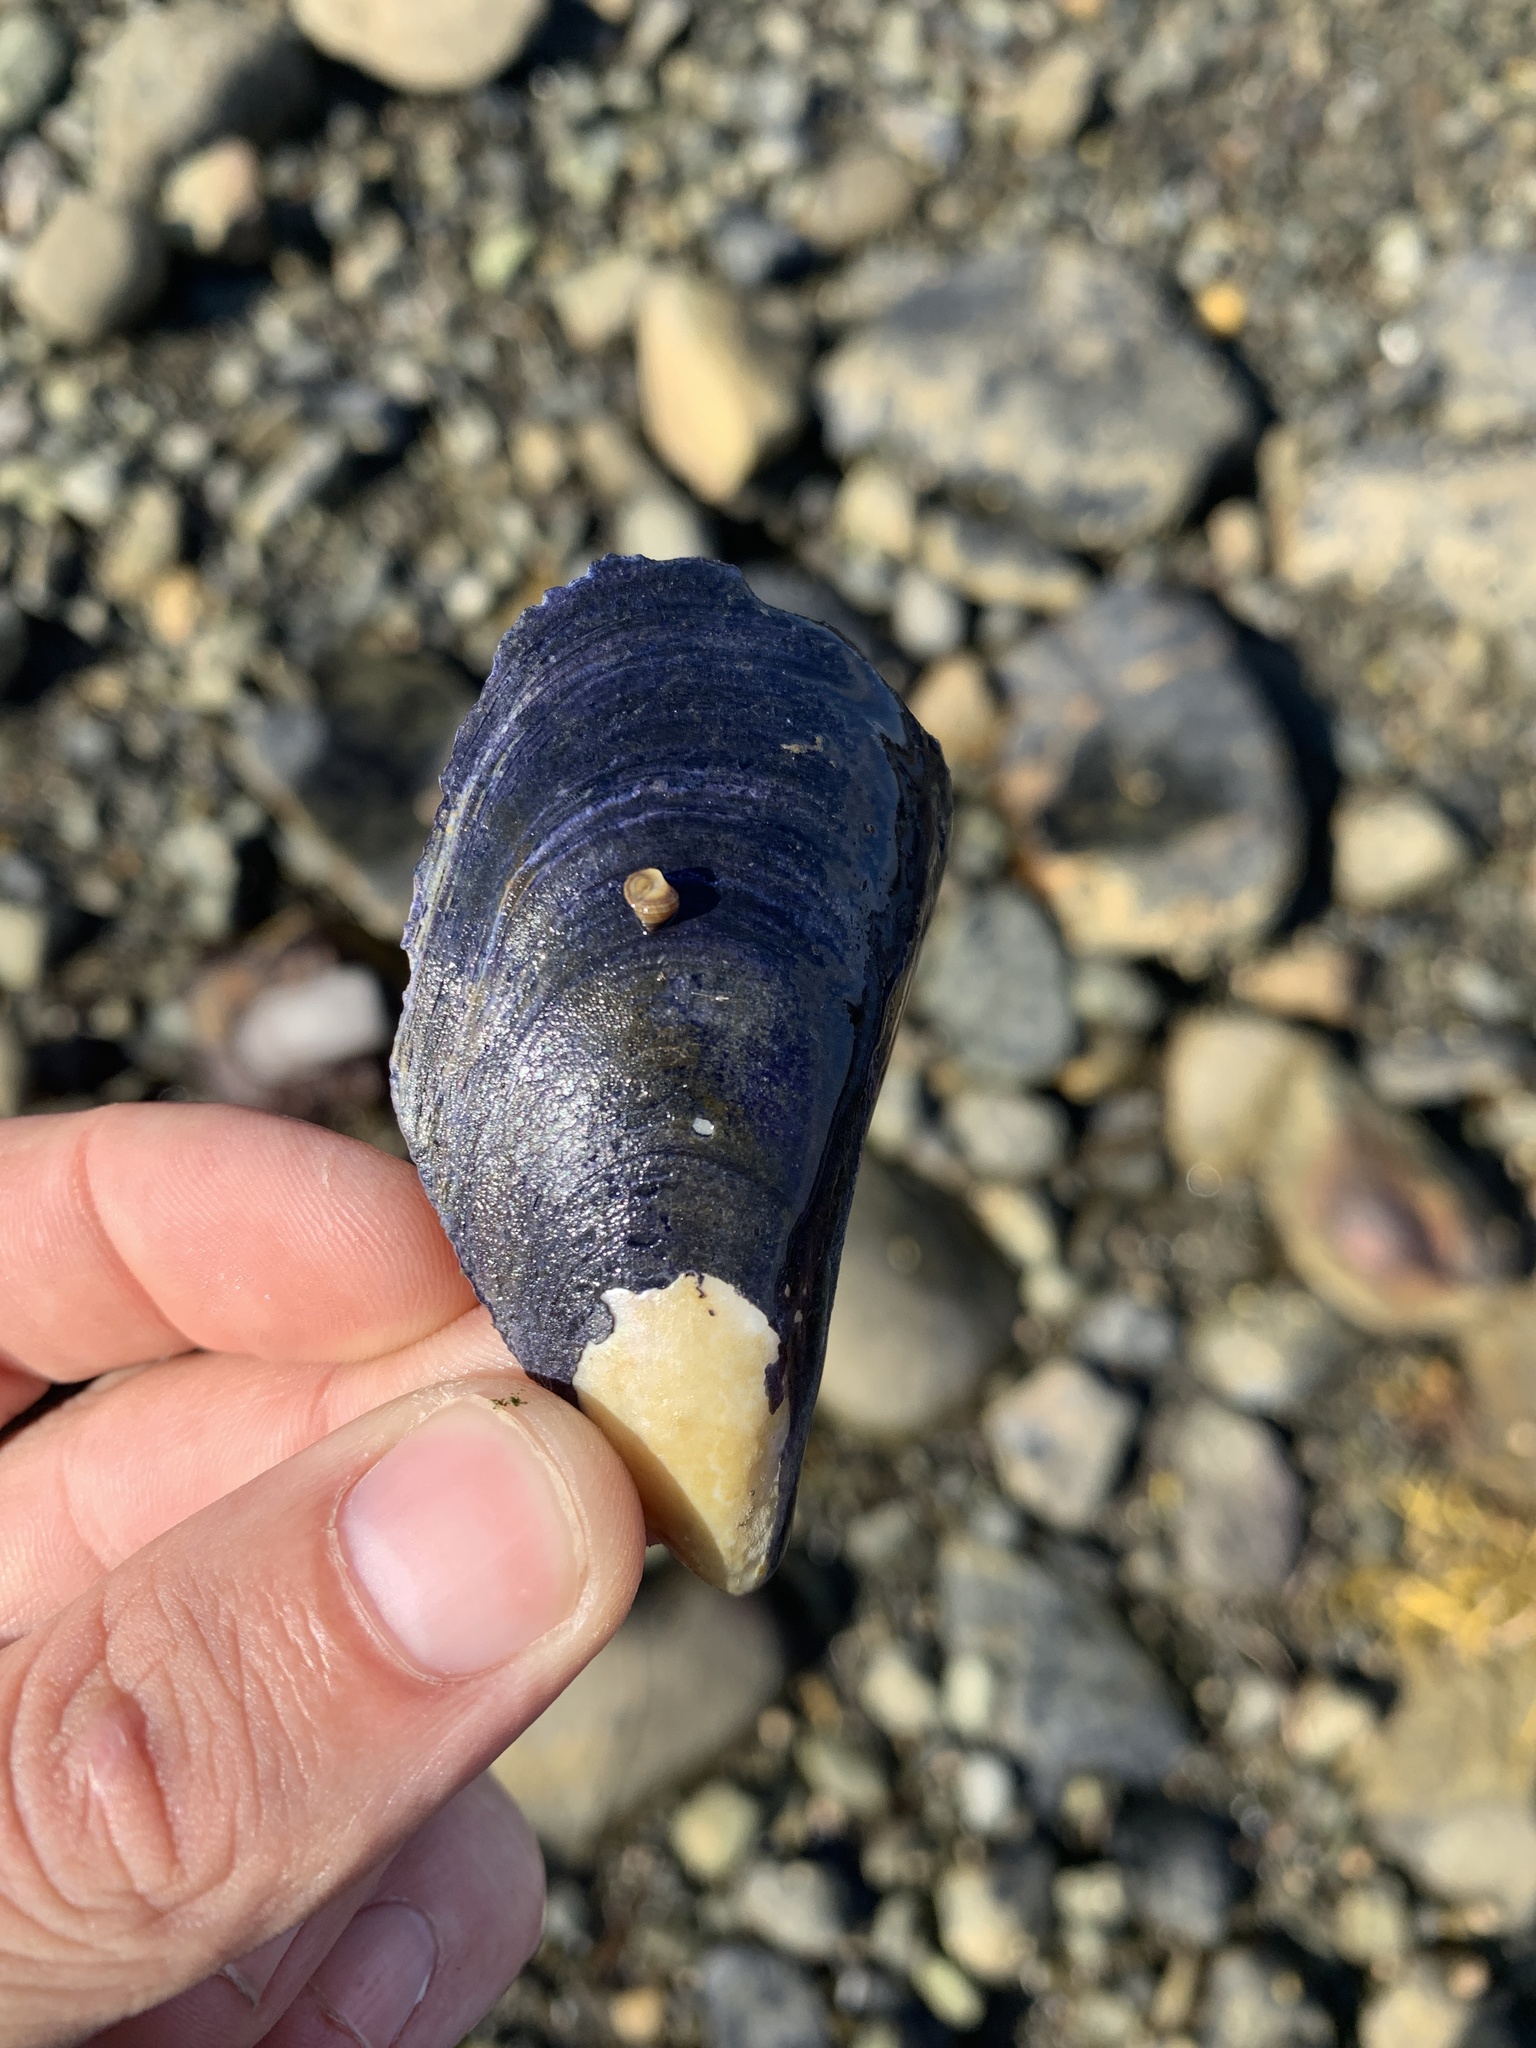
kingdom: Animalia
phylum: Mollusca
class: Bivalvia
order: Mytilida
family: Mytilidae
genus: Mytilus
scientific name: Mytilus edulis
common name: Blue mussel
